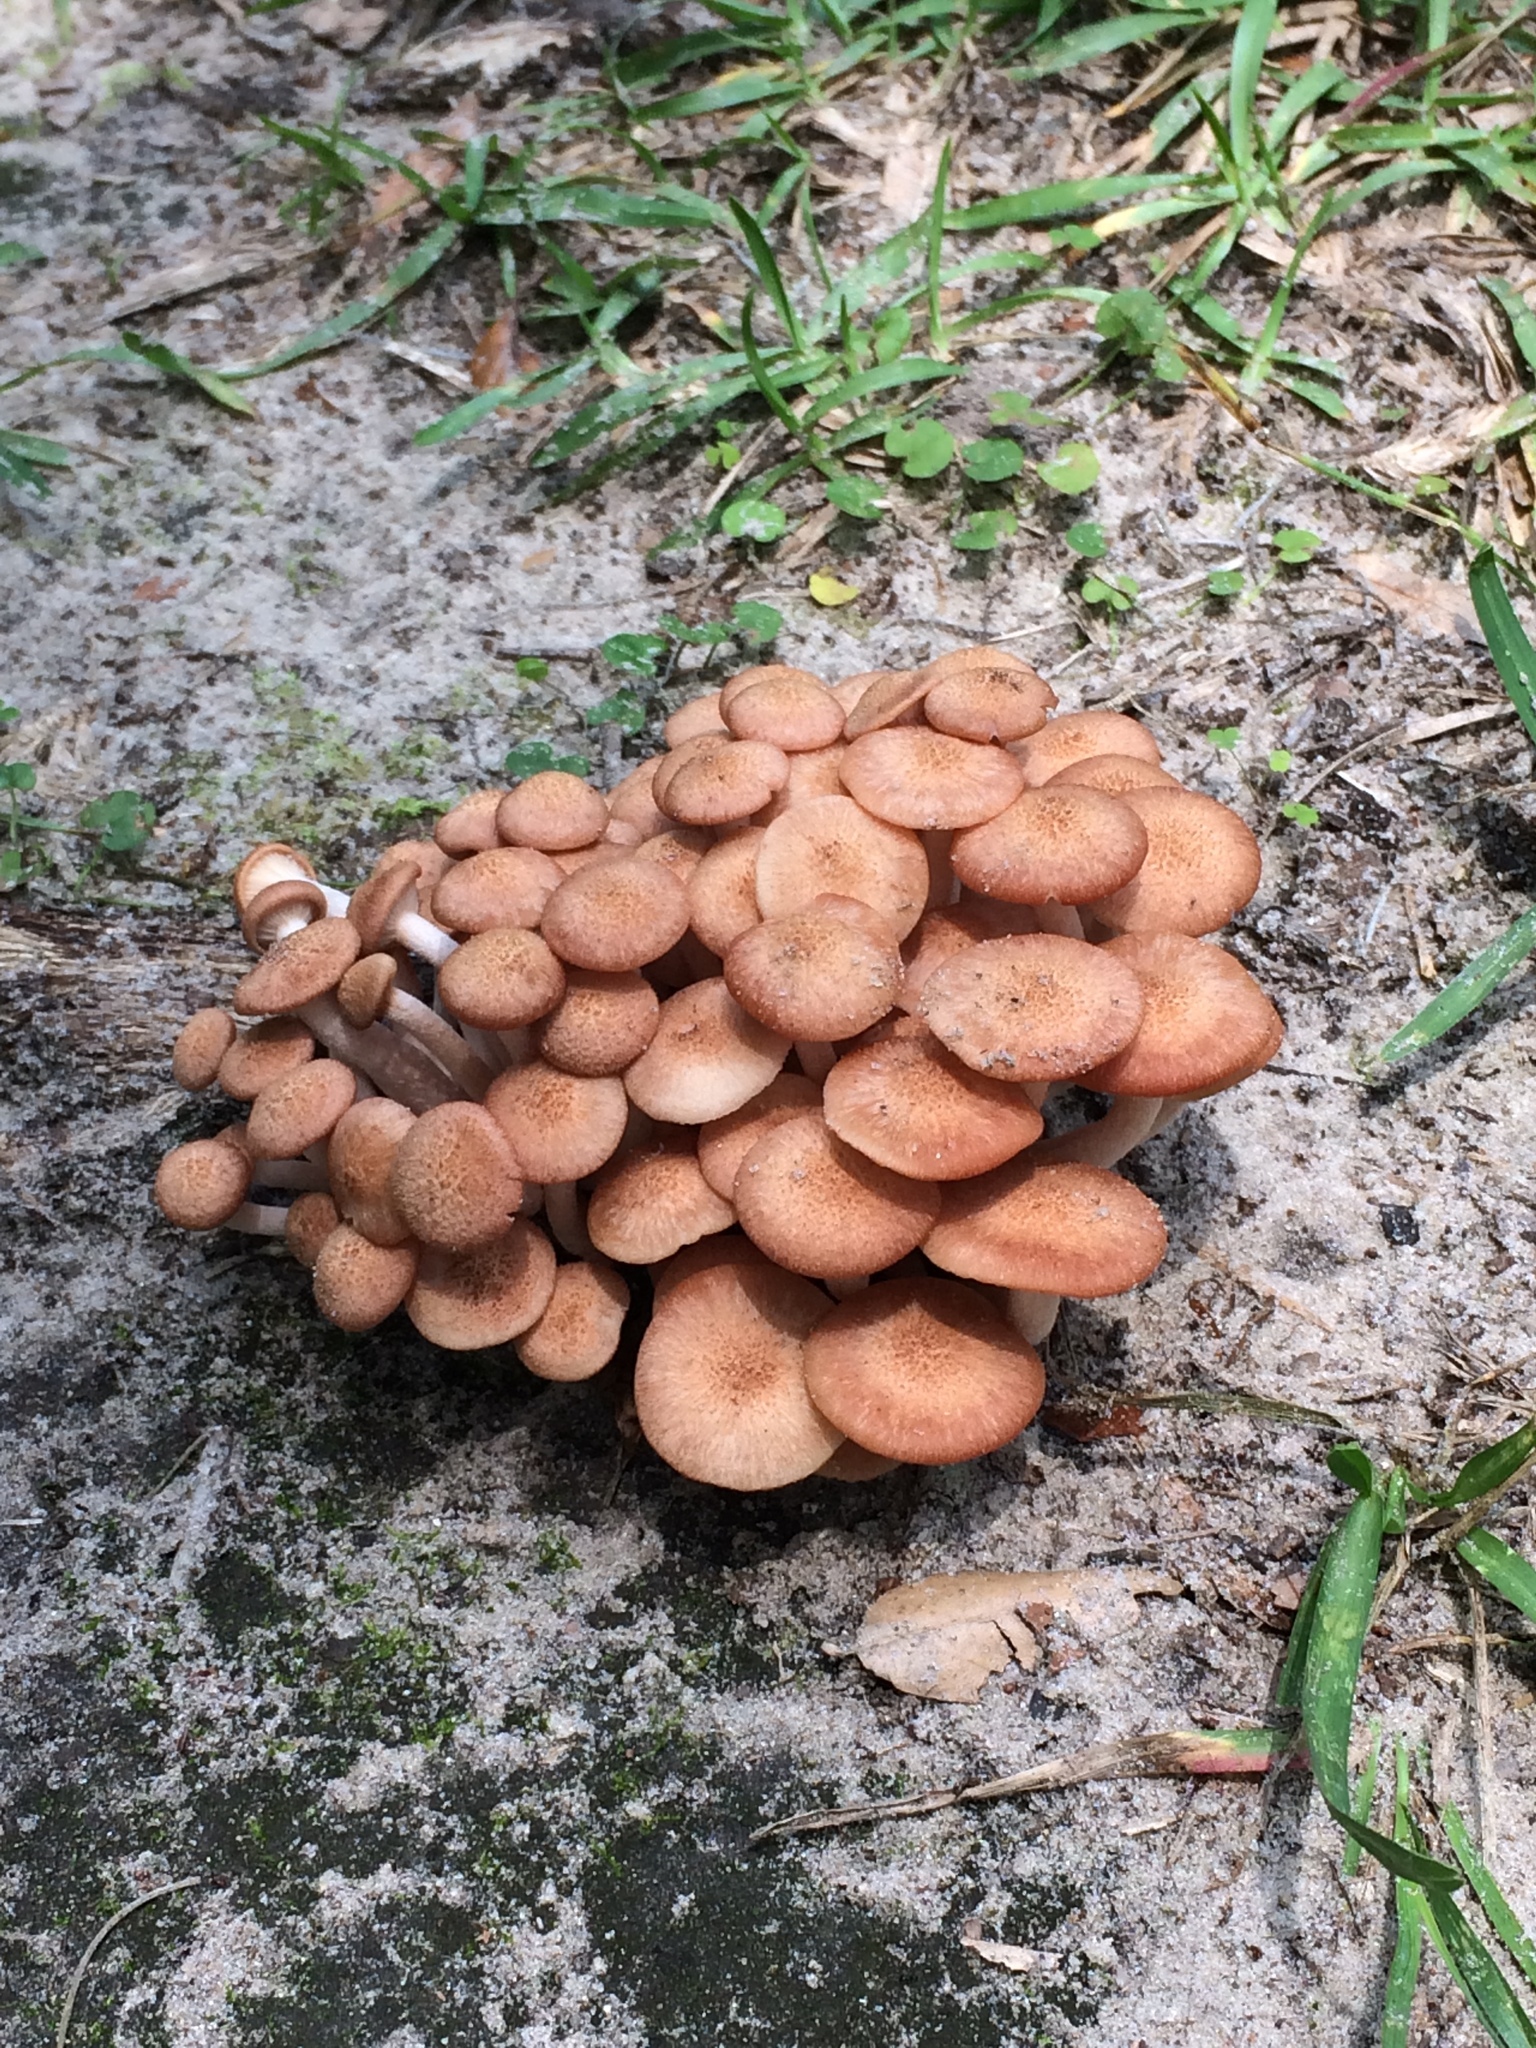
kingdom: Fungi
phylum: Basidiomycota
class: Agaricomycetes
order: Agaricales
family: Physalacriaceae
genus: Desarmillaria
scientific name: Desarmillaria caespitosa
